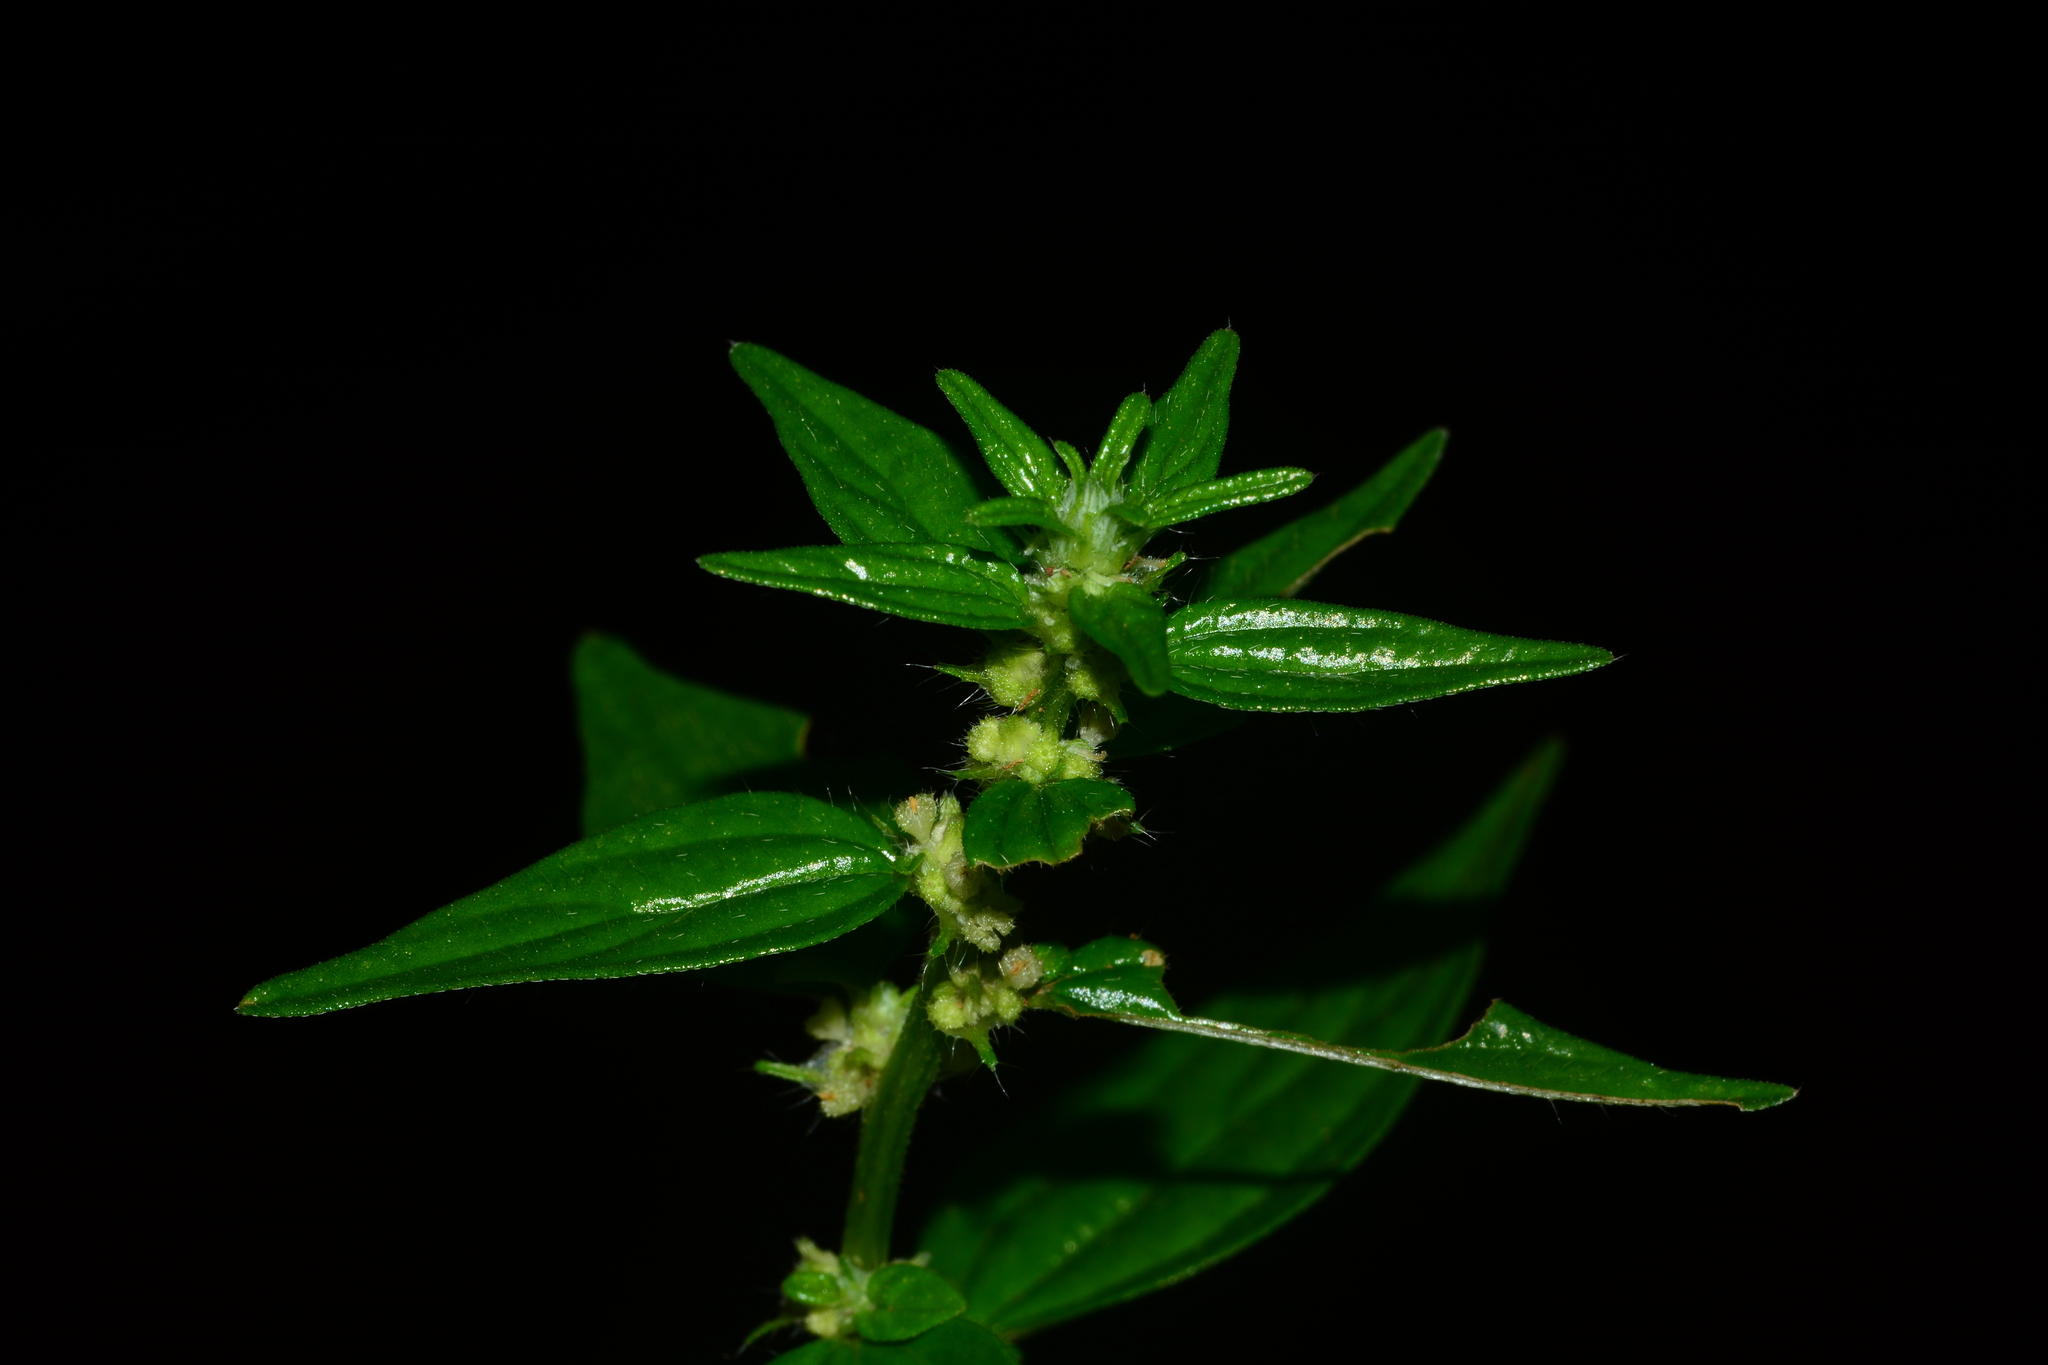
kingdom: Plantae
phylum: Tracheophyta
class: Magnoliopsida
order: Rosales
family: Urticaceae
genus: Pouzolzia
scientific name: Pouzolzia zeylanica
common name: Graceful pouzolzsbush
